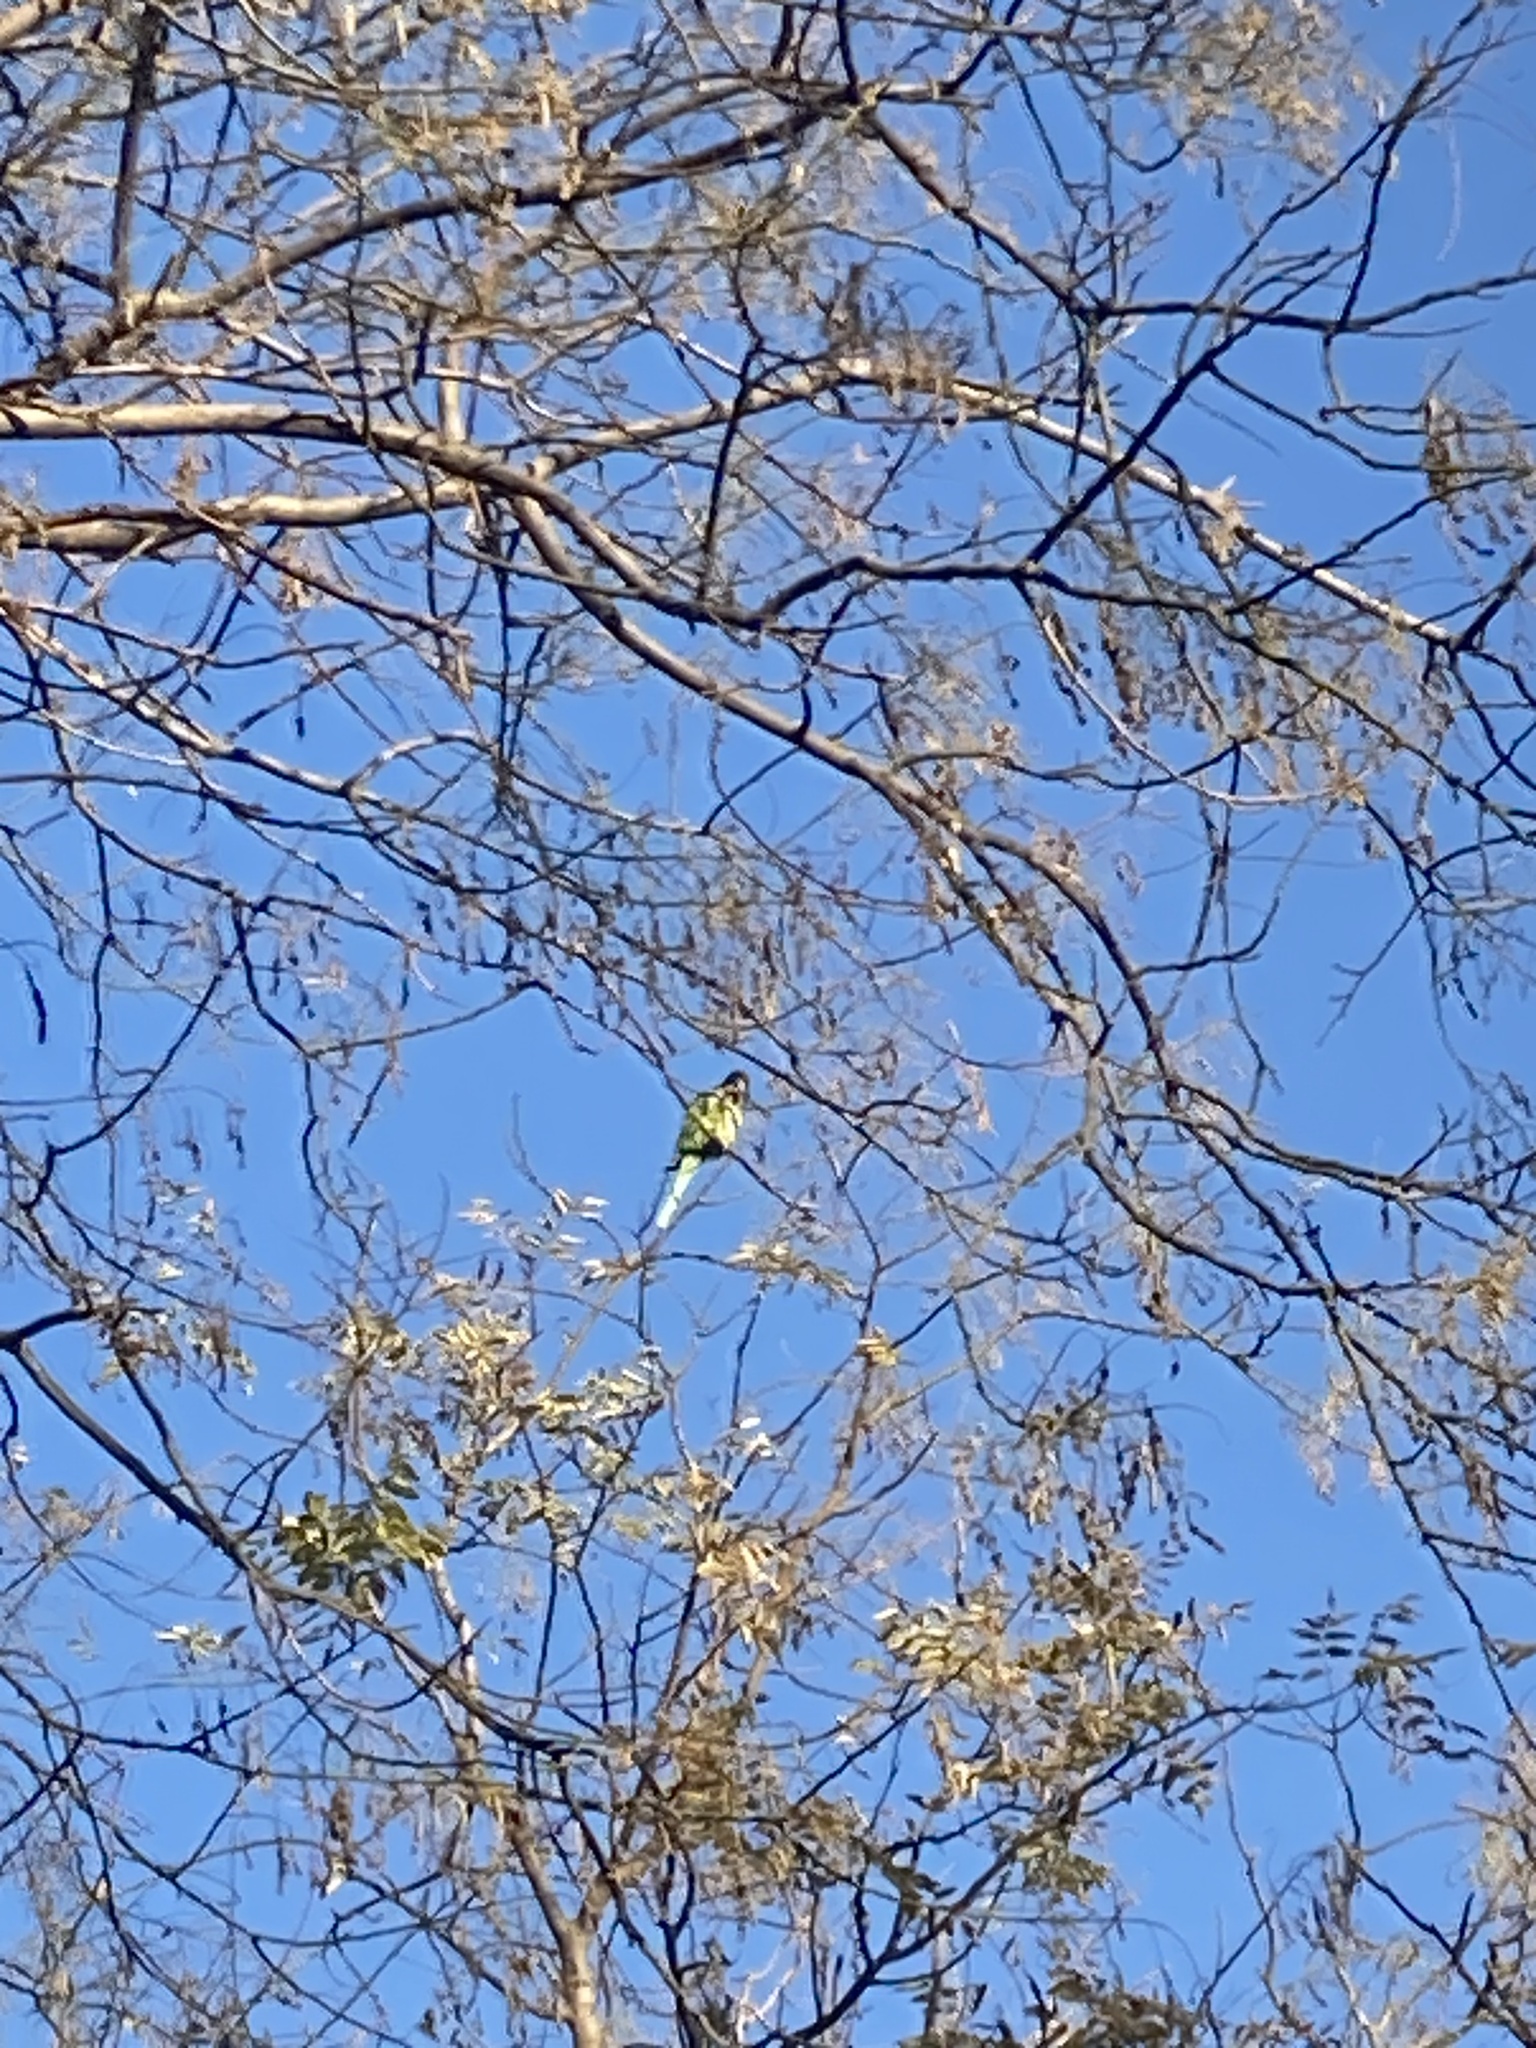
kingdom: Animalia
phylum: Chordata
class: Aves
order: Psittaciformes
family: Psittacidae
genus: Psittacula
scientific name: Psittacula krameri
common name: Rose-ringed parakeet
